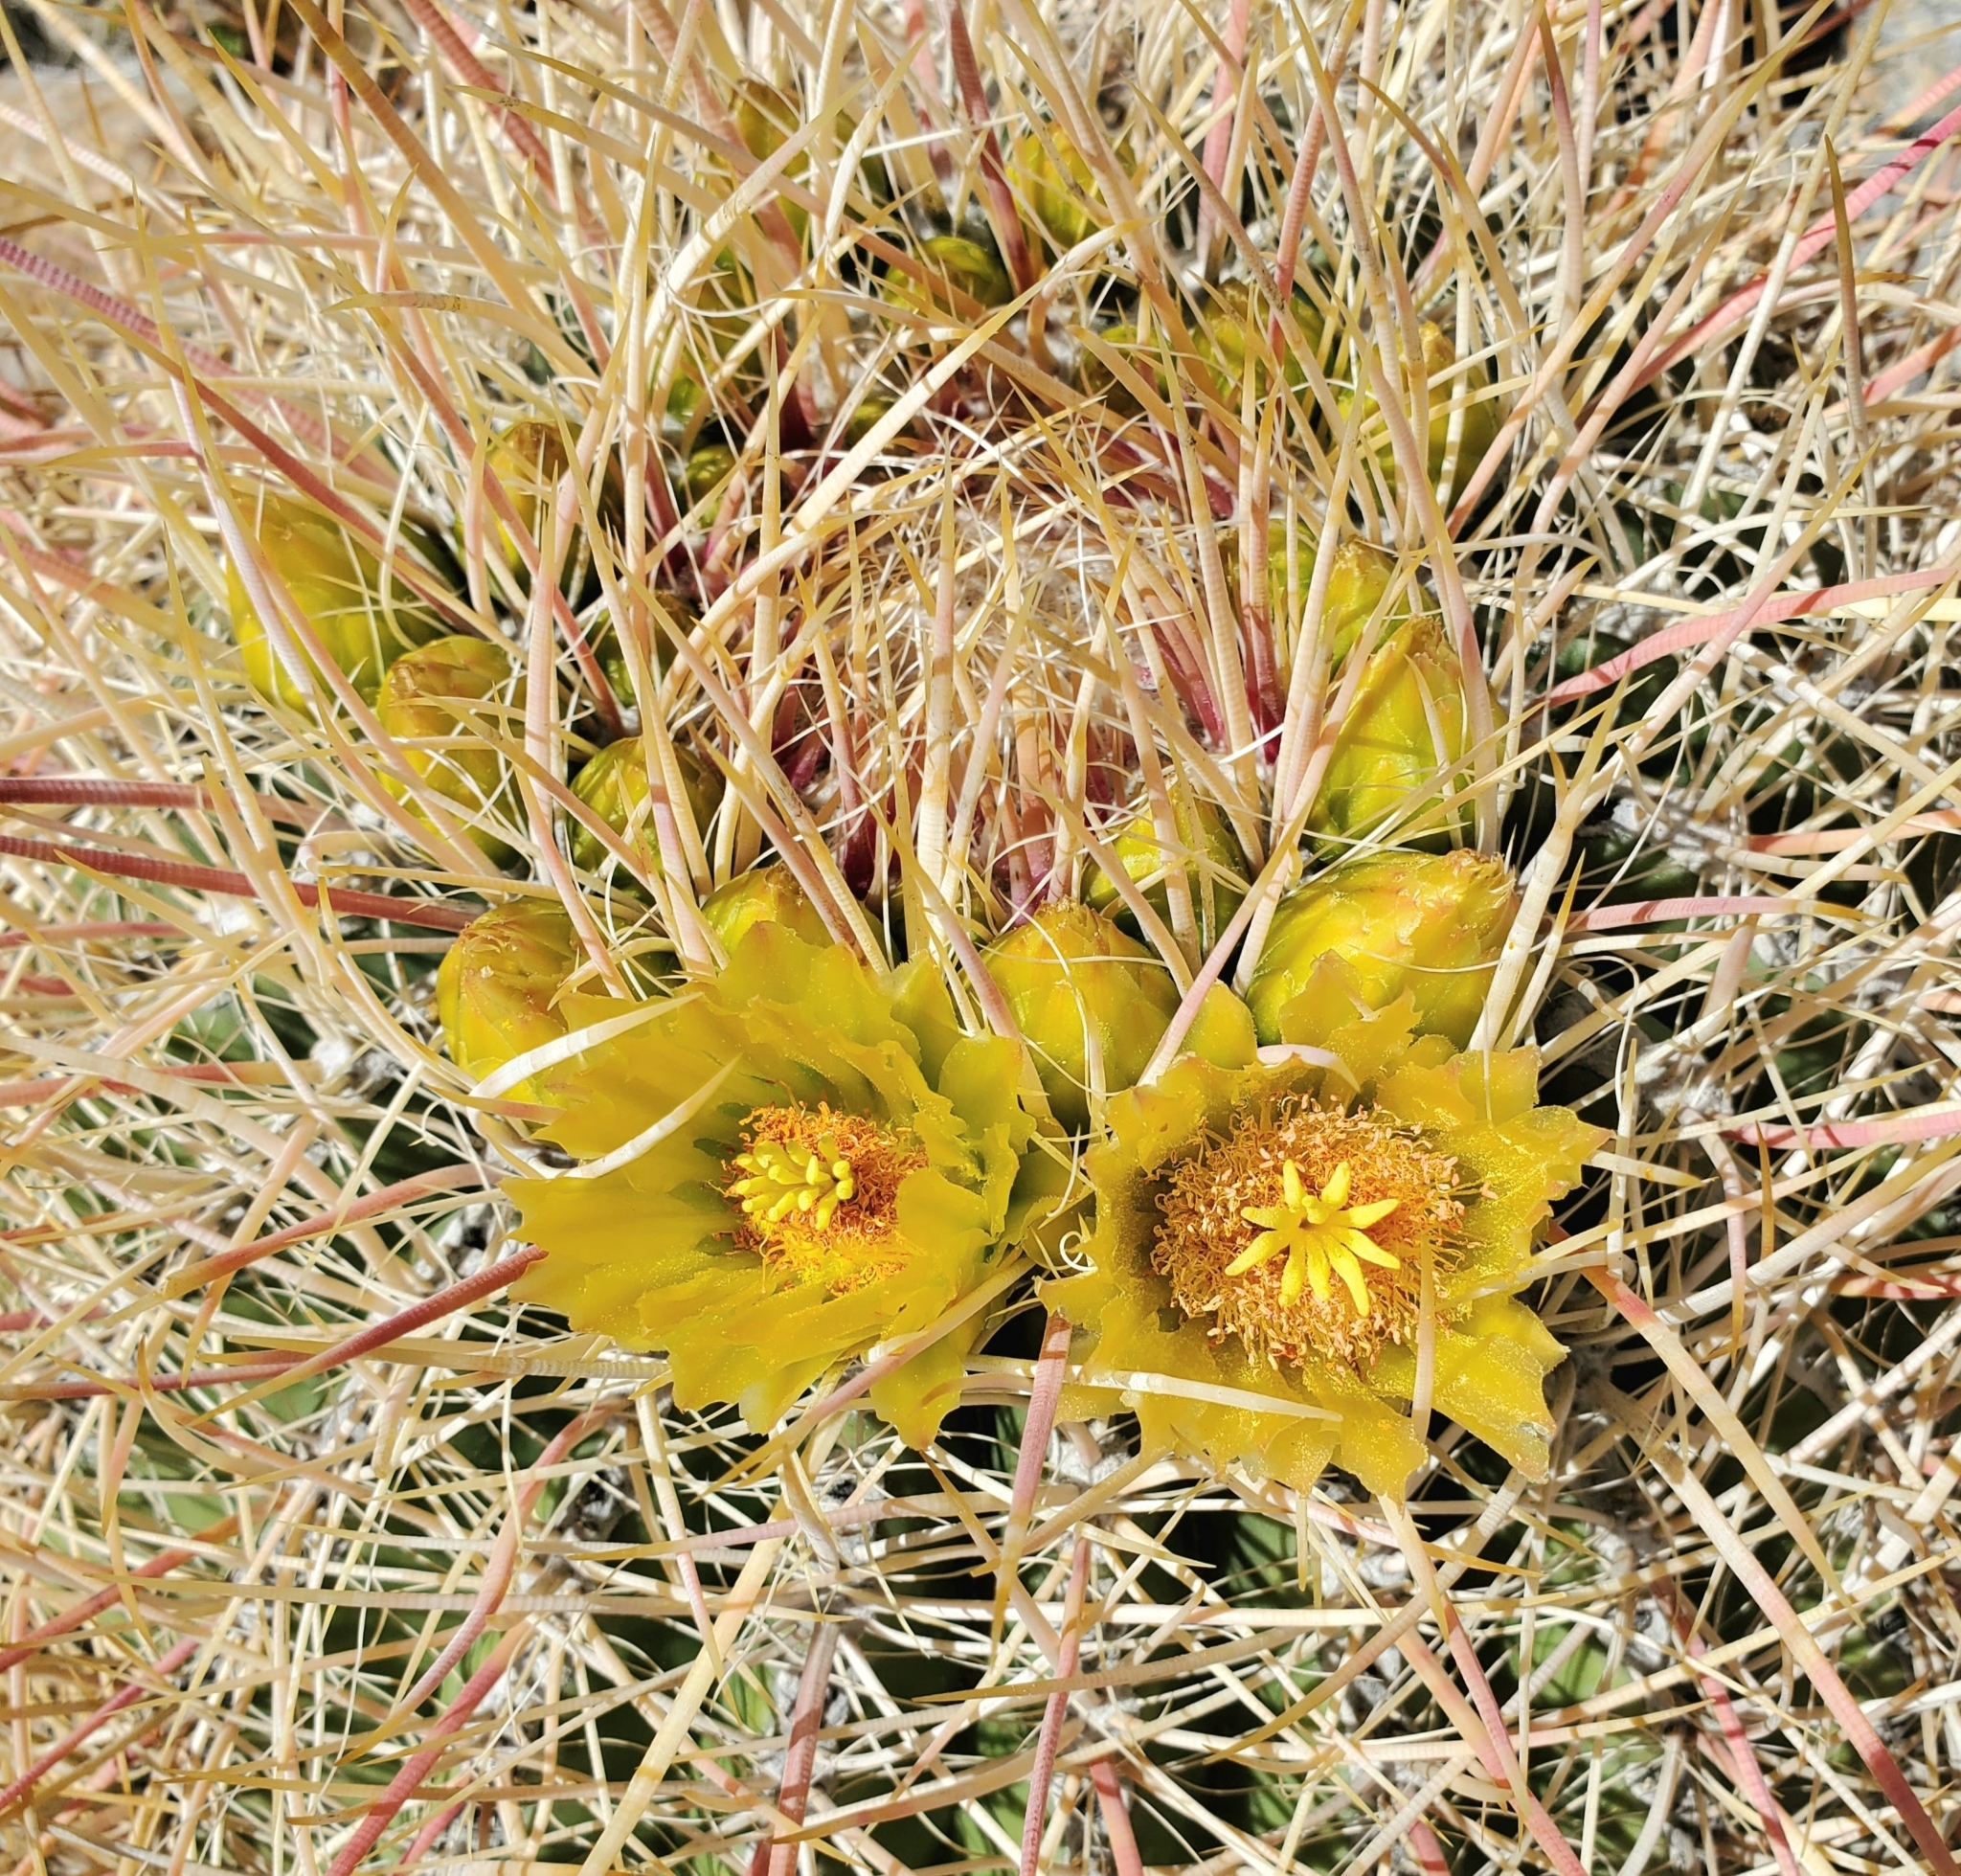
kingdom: Plantae
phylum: Tracheophyta
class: Magnoliopsida
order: Caryophyllales
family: Cactaceae
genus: Ferocactus
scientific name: Ferocactus cylindraceus
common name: California barrel cactus
